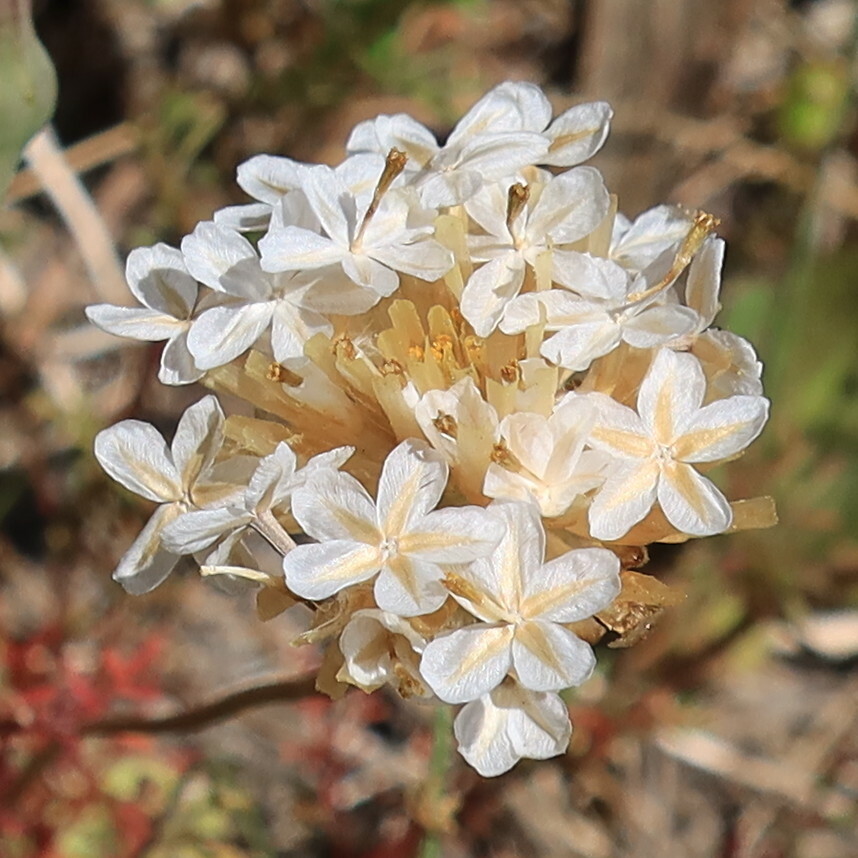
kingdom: Plantae
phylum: Tracheophyta
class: Magnoliopsida
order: Asterales
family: Asteraceae
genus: Ursinia
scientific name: Ursinia anthemoides
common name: Ursinia
